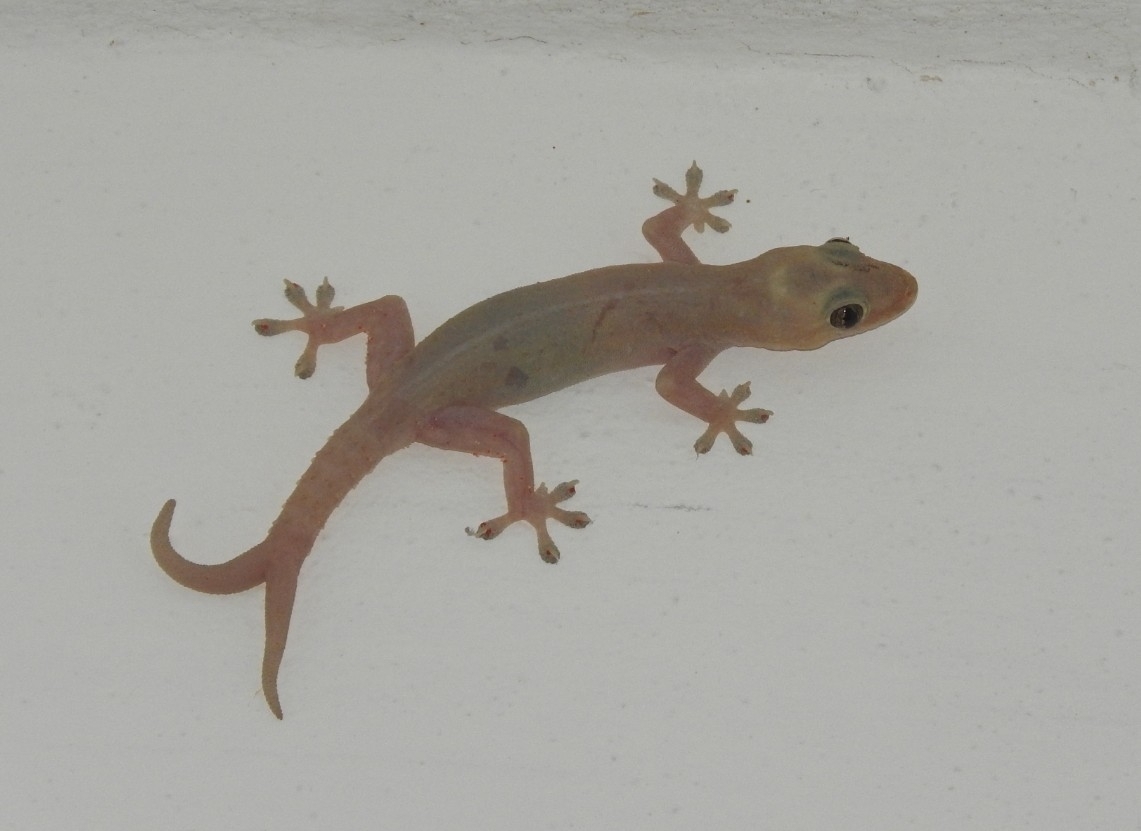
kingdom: Animalia
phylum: Chordata
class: Squamata
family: Gekkonidae
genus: Hemidactylus
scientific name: Hemidactylus frenatus
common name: Common house gecko
